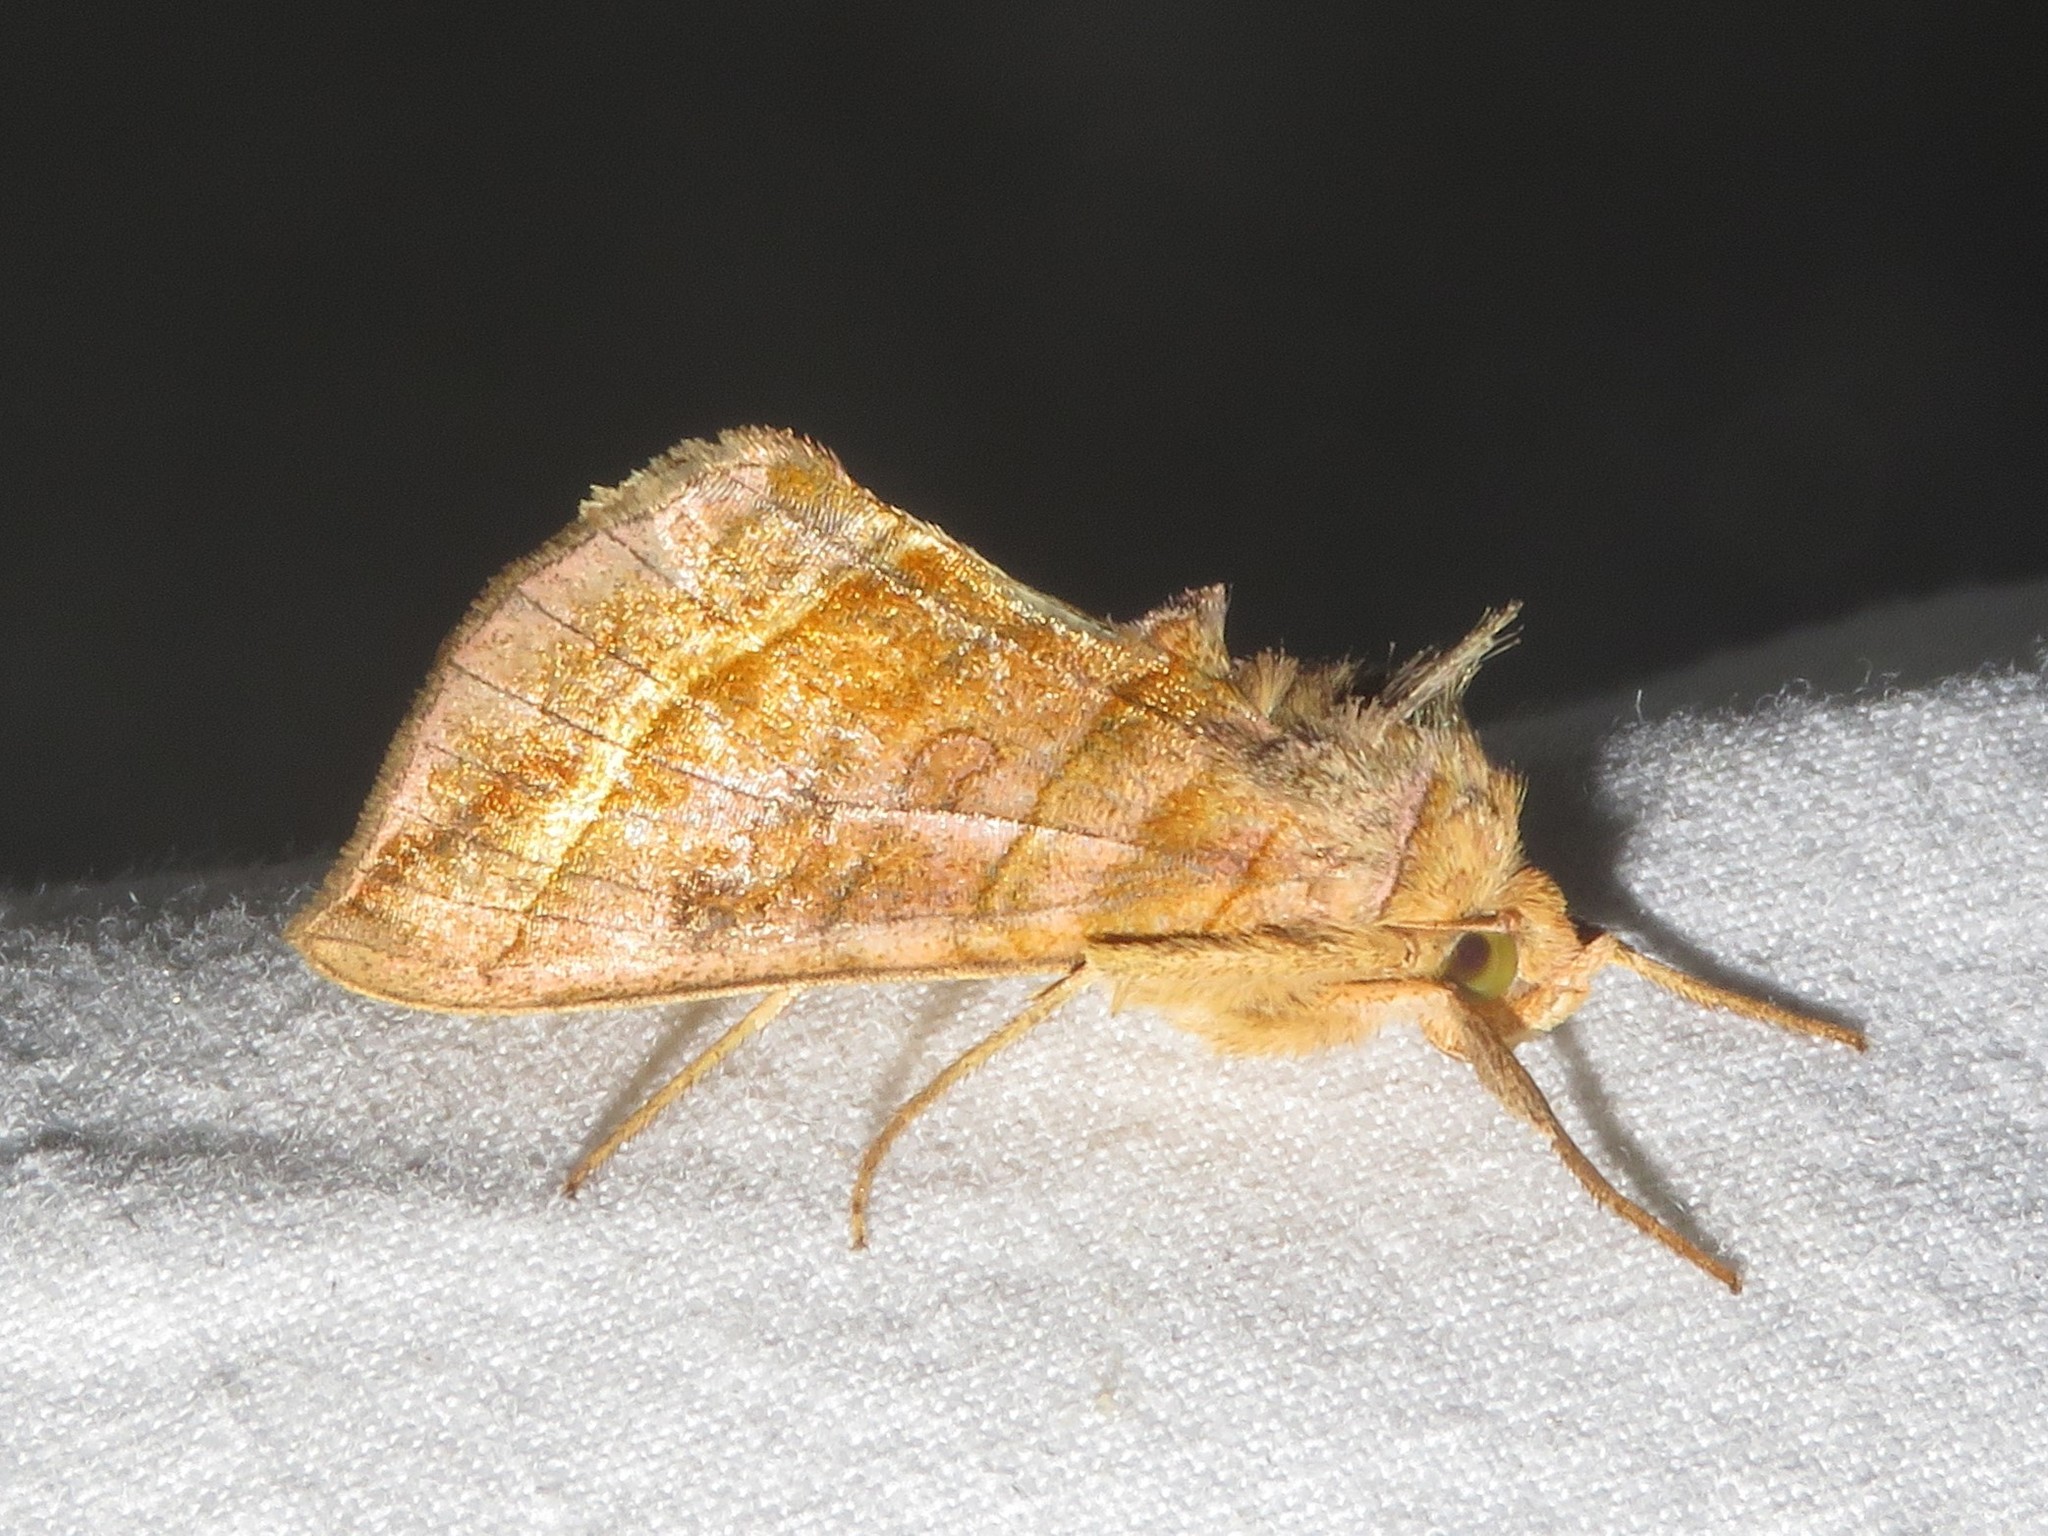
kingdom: Animalia
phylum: Arthropoda
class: Insecta
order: Lepidoptera
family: Noctuidae
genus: Diachrysia
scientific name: Diachrysia aereoides
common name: Dark-spotted looper moth
